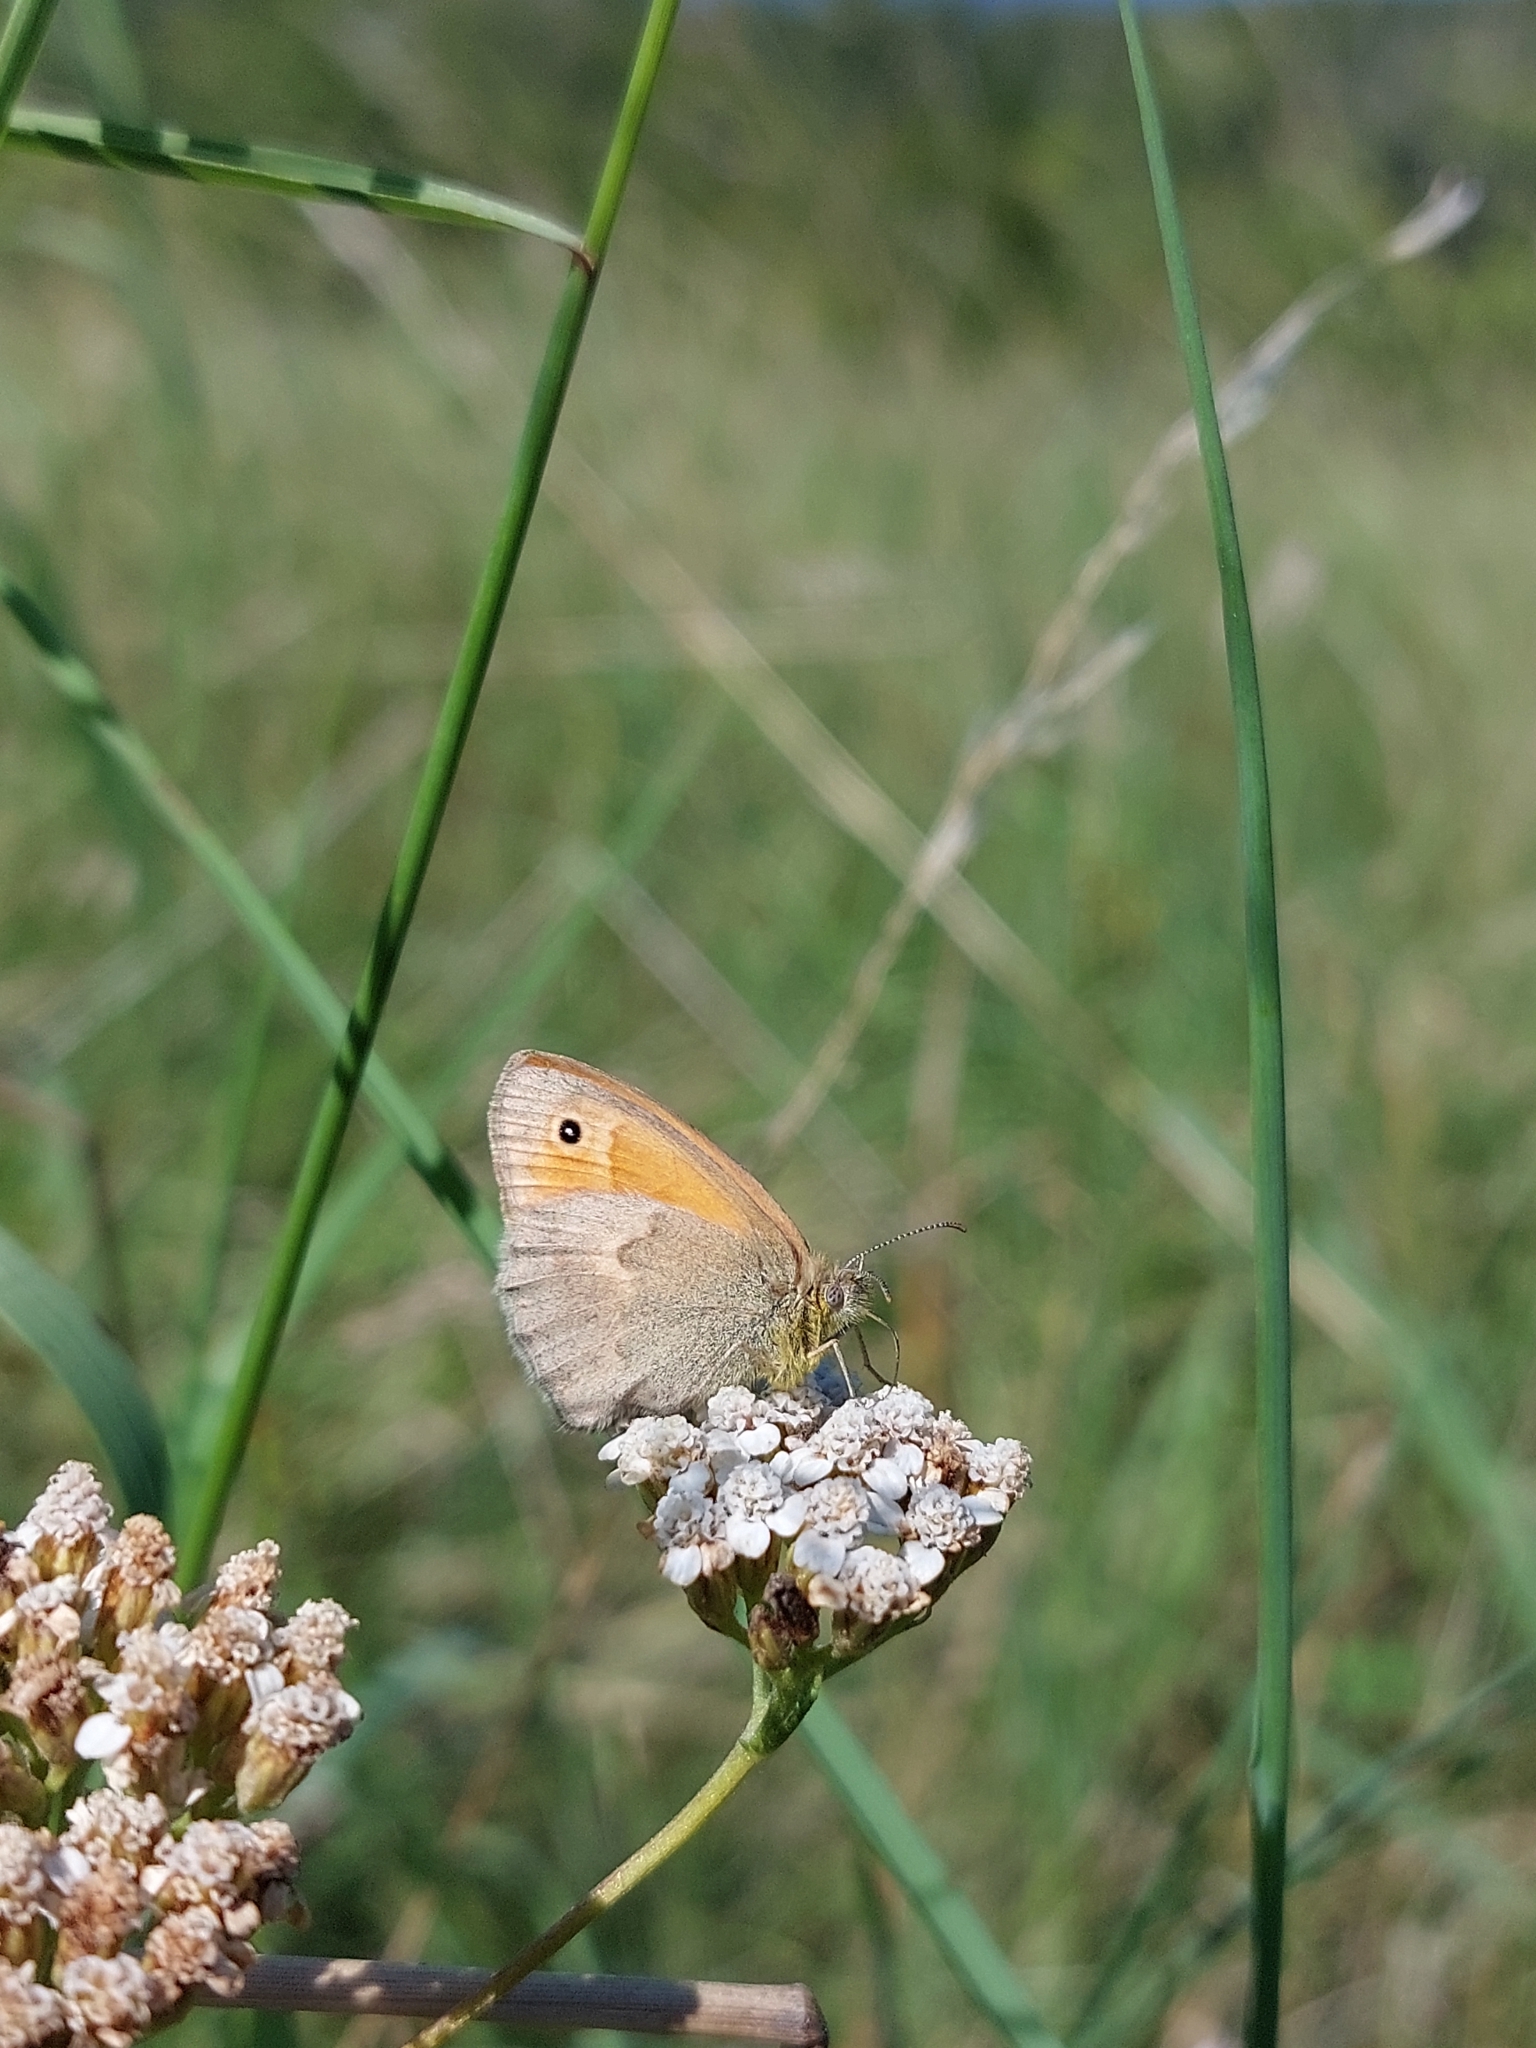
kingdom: Animalia
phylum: Arthropoda
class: Insecta
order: Lepidoptera
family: Nymphalidae
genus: Coenonympha
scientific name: Coenonympha pamphilus
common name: Small heath
